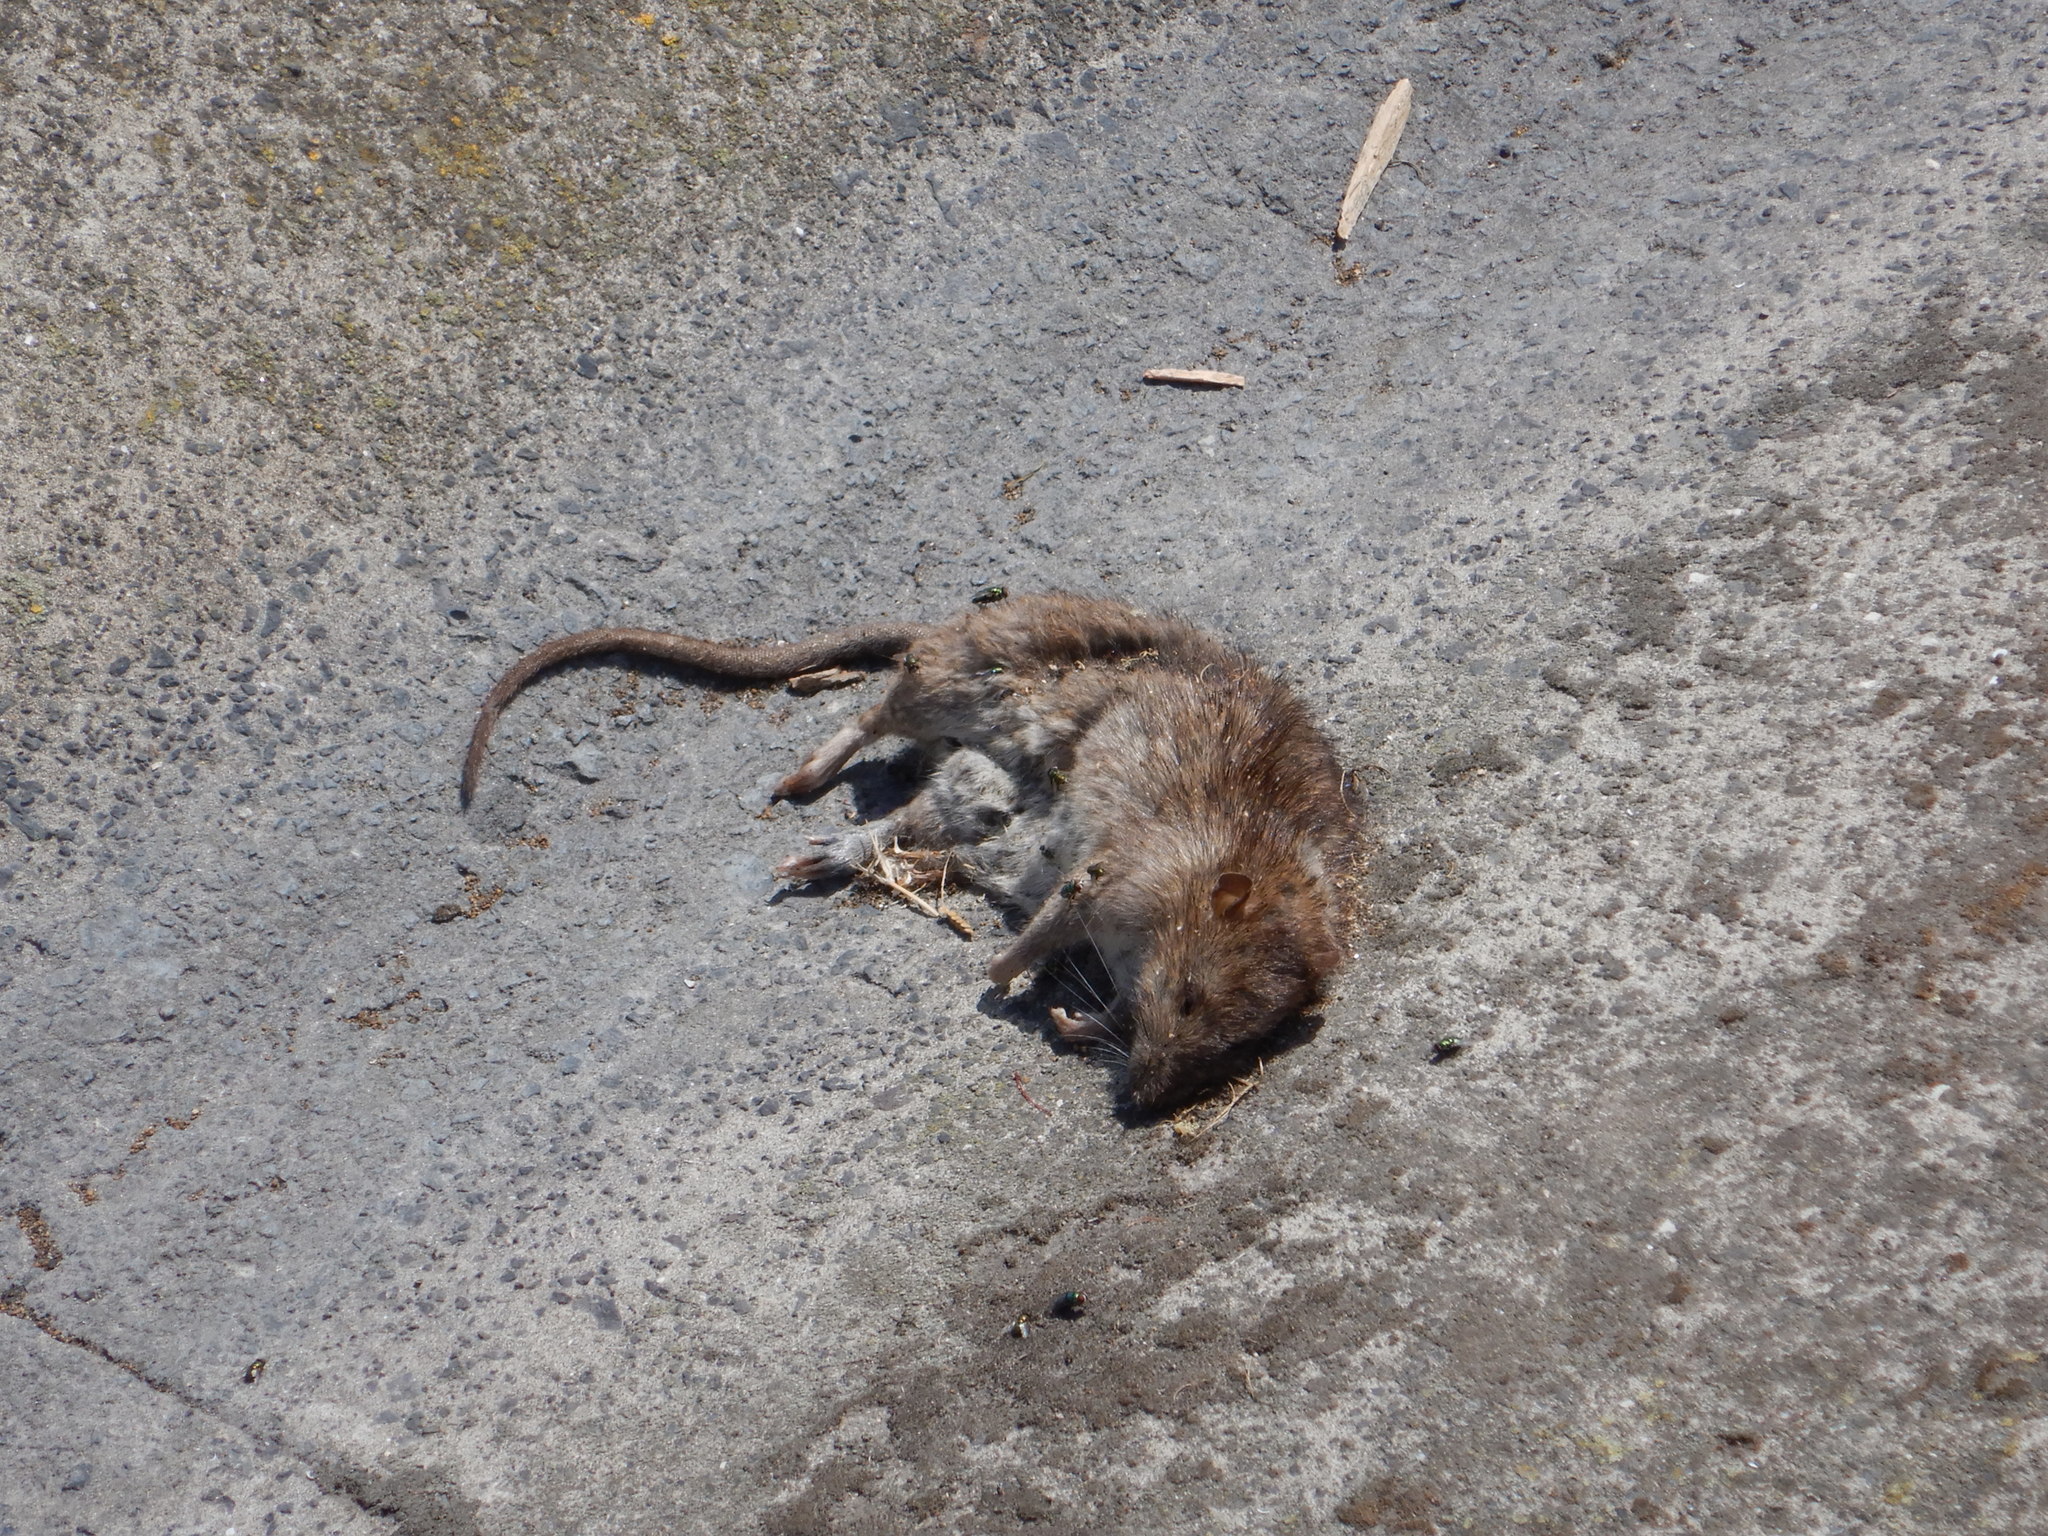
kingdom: Animalia
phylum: Chordata
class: Mammalia
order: Rodentia
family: Muridae
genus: Rattus
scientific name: Rattus norvegicus
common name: Brown rat
